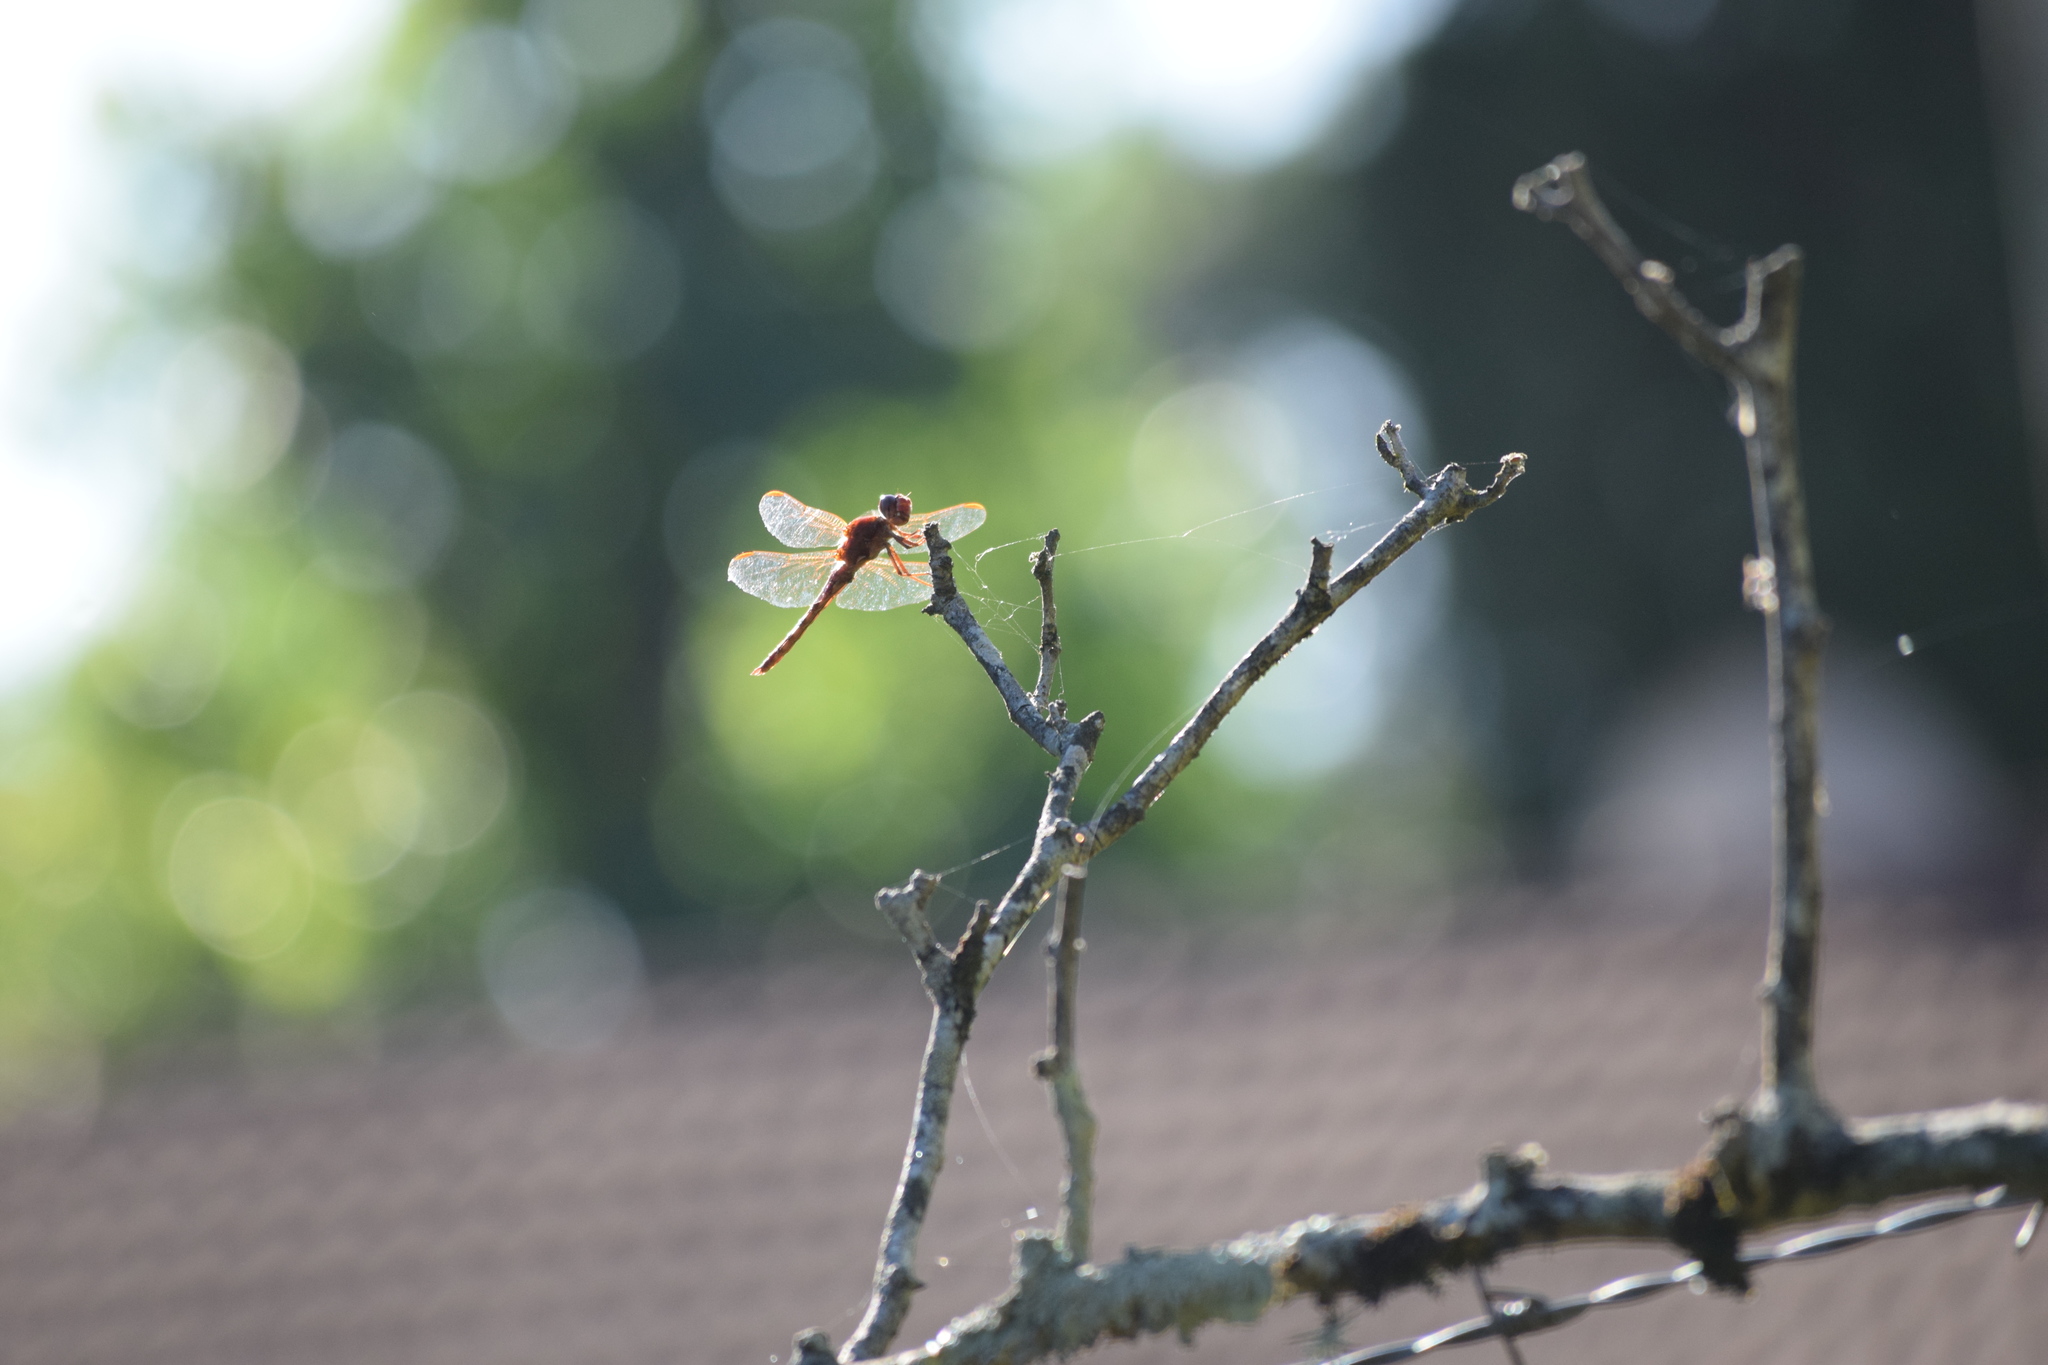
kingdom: Animalia
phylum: Arthropoda
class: Insecta
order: Odonata
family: Libellulidae
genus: Orthemis
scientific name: Orthemis nodiplaga
